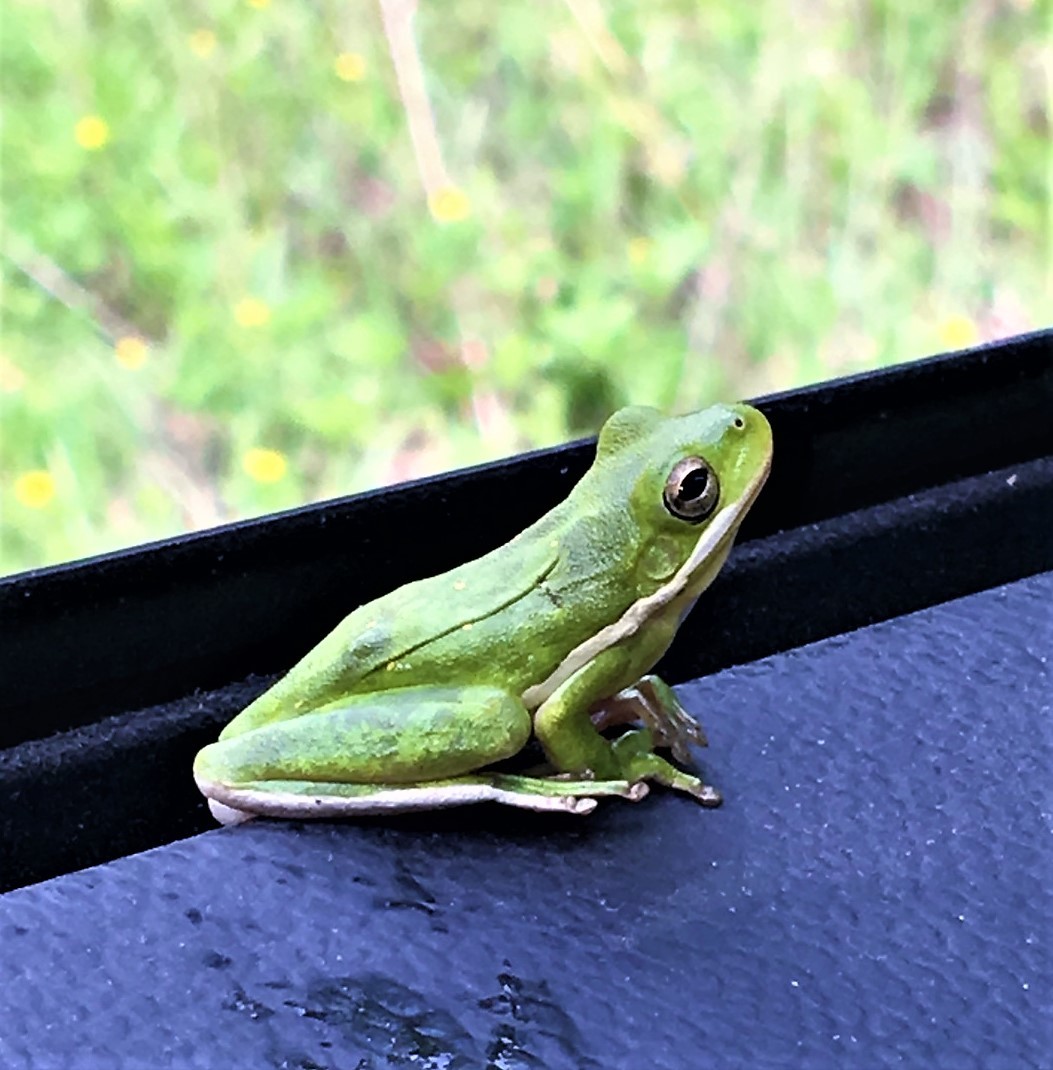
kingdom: Animalia
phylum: Chordata
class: Amphibia
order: Anura
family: Hylidae
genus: Dryophytes
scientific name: Dryophytes cinereus
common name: Green treefrog
